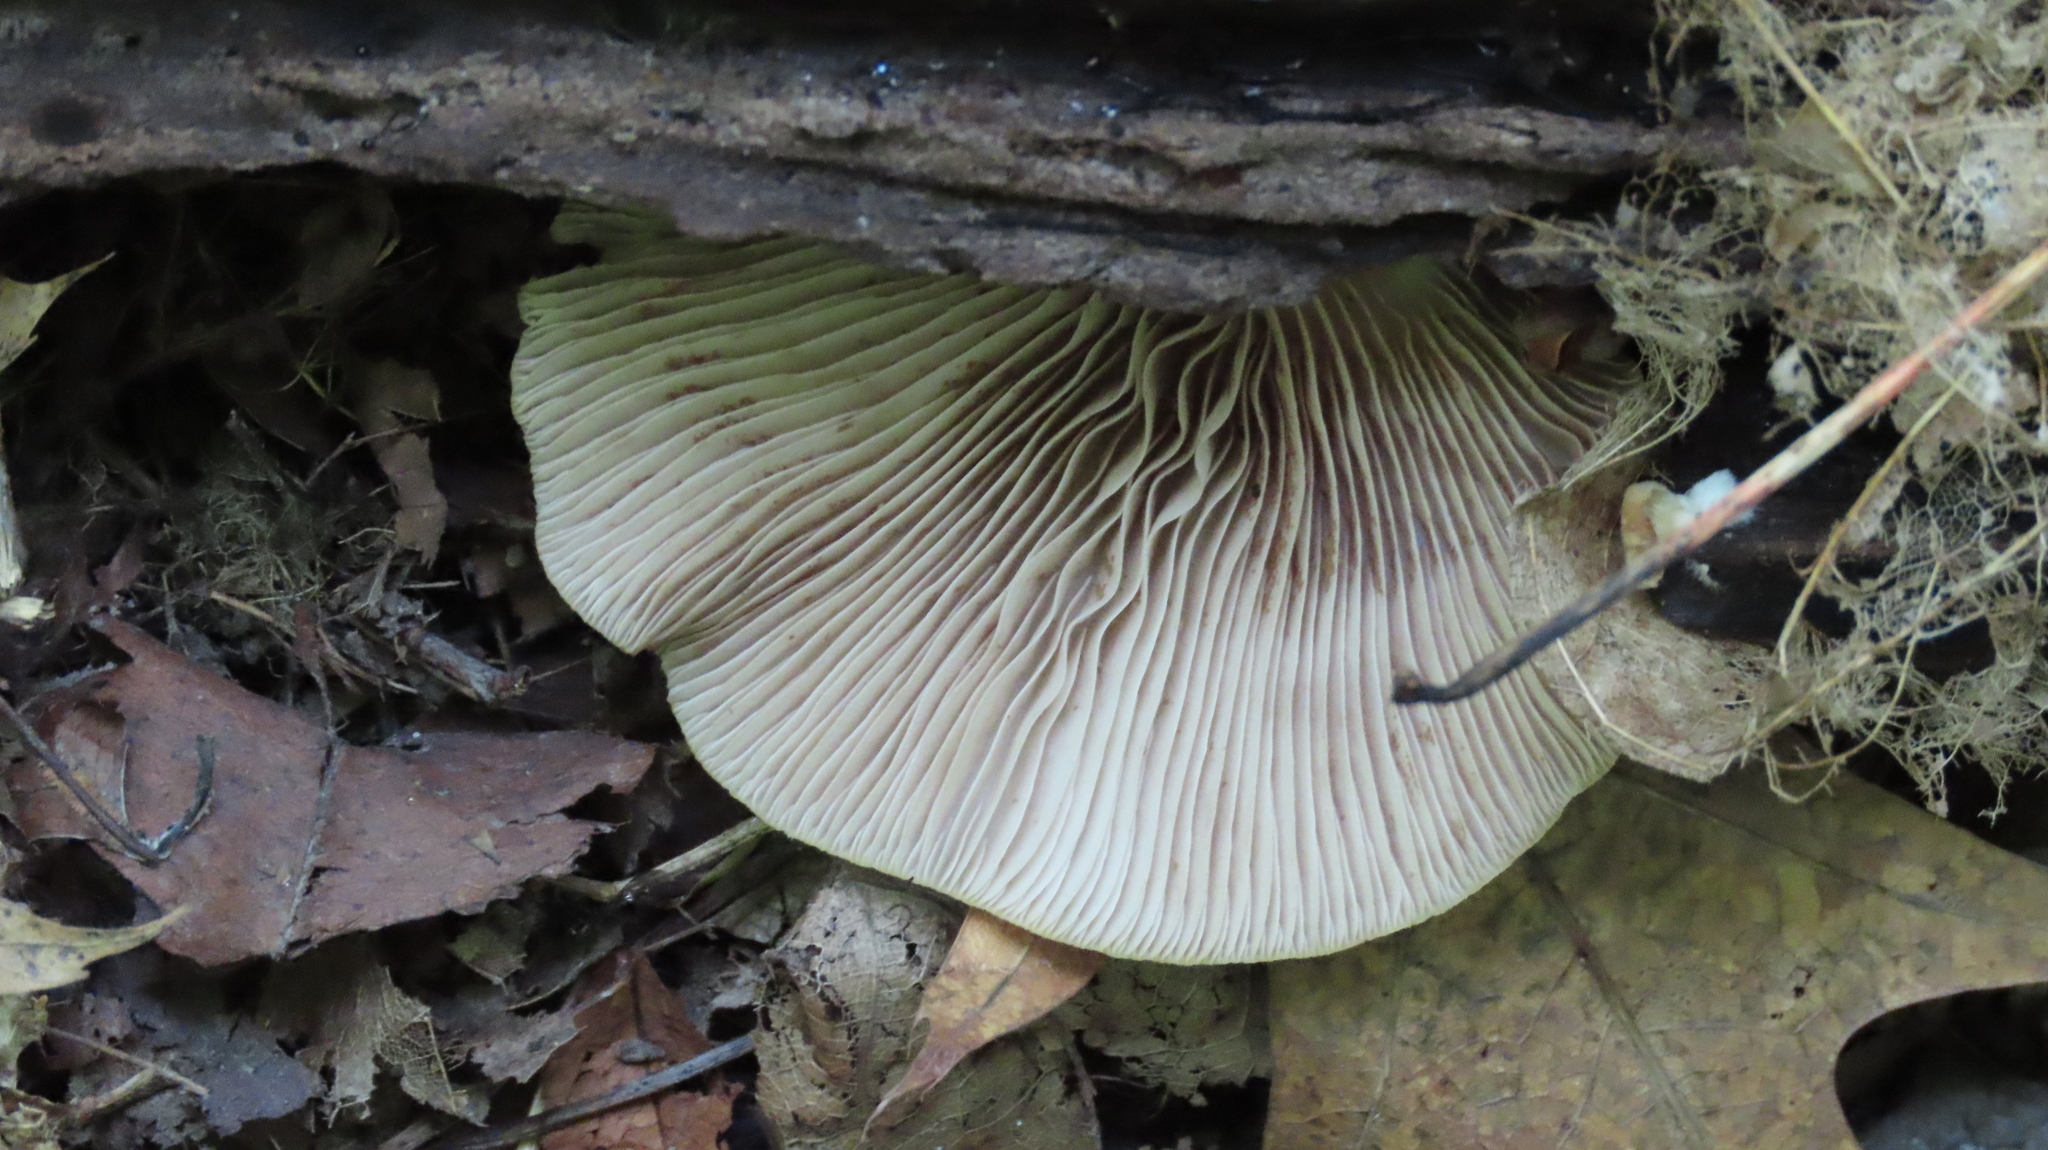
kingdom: Fungi
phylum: Basidiomycota
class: Agaricomycetes
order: Agaricales
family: Crepidotaceae
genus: Crepidotus
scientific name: Crepidotus malachius
